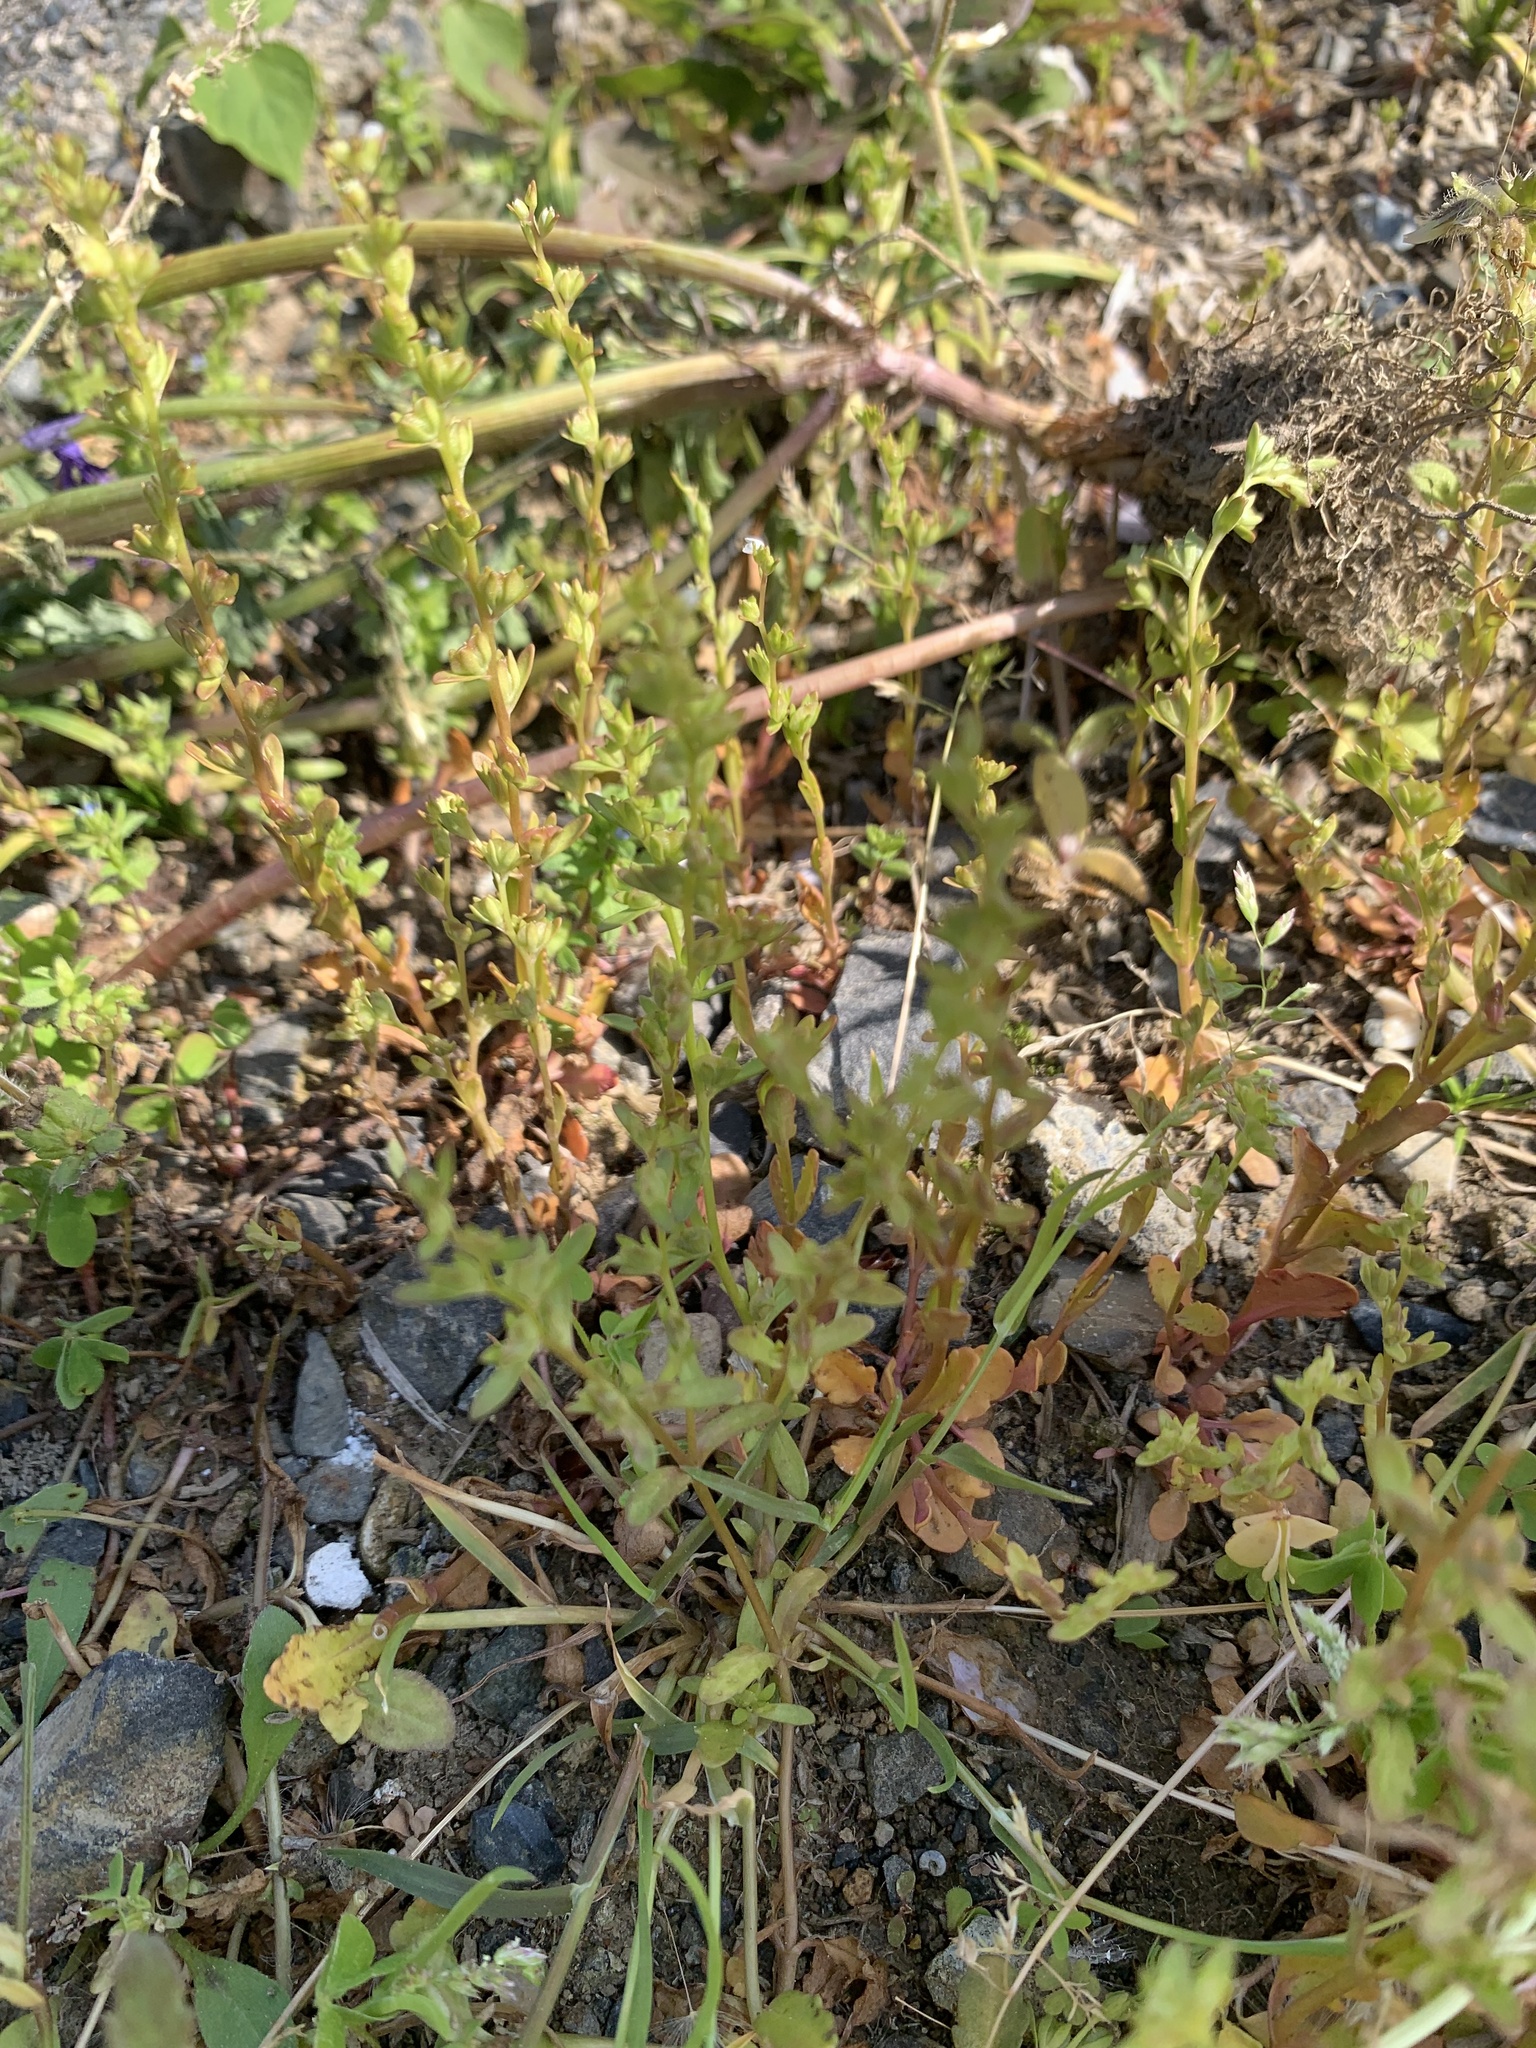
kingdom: Plantae
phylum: Tracheophyta
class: Magnoliopsida
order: Lamiales
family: Plantaginaceae
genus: Veronica
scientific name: Veronica peregrina
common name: Neckweed
